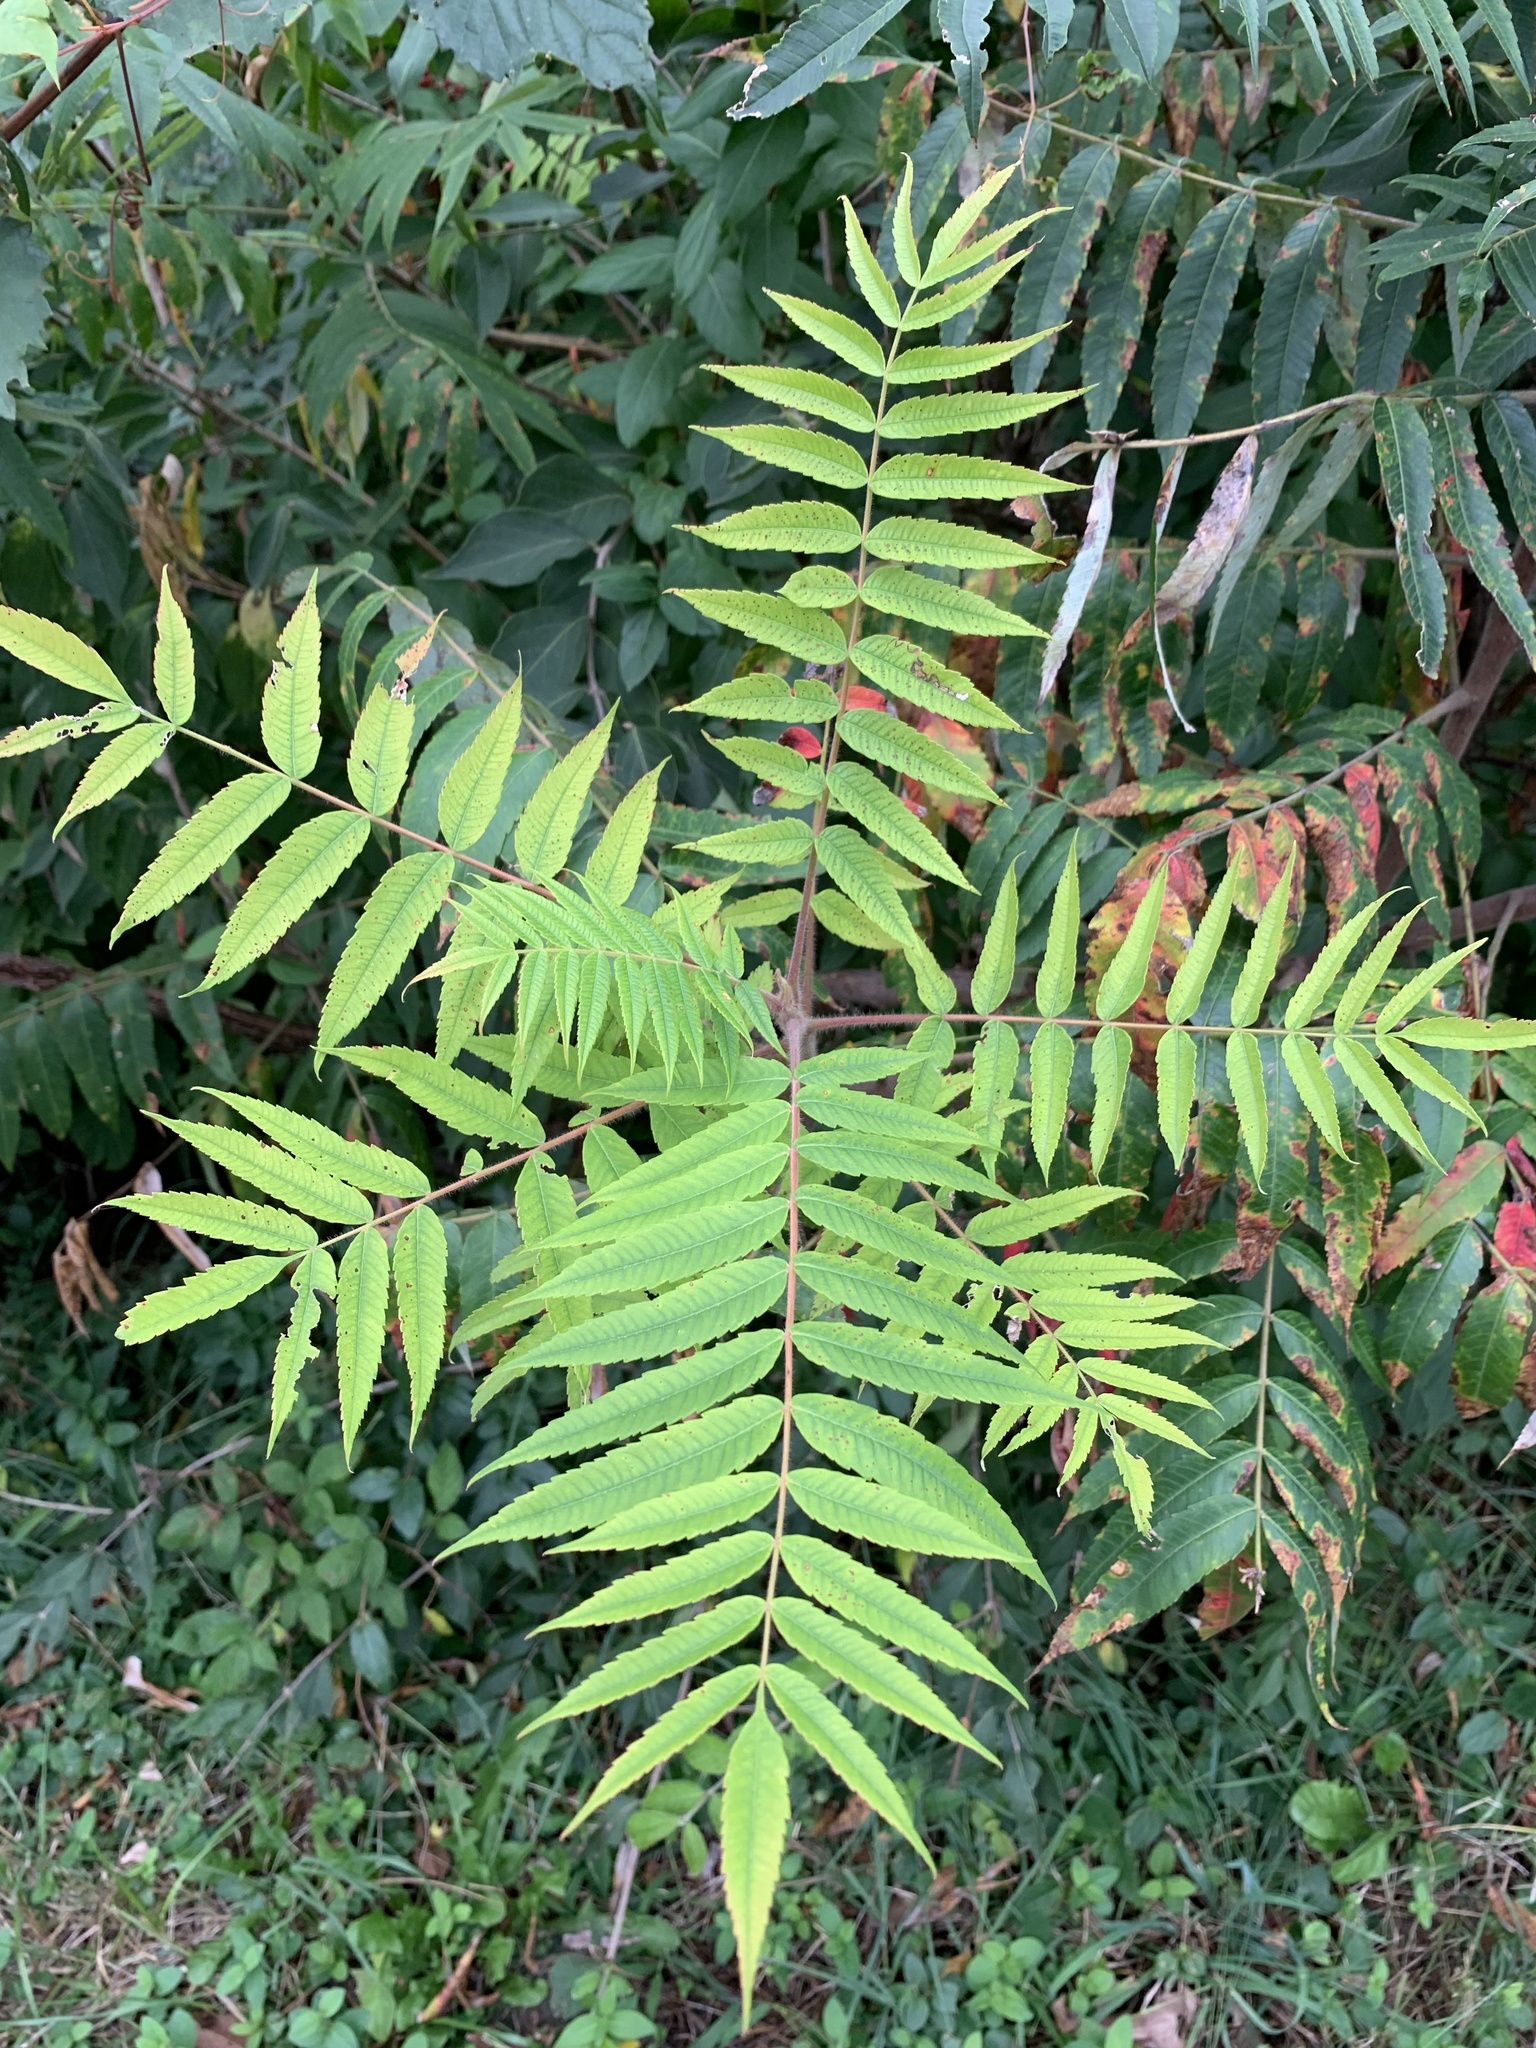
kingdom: Plantae
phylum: Tracheophyta
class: Magnoliopsida
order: Sapindales
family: Anacardiaceae
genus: Rhus
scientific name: Rhus typhina
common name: Staghorn sumac
